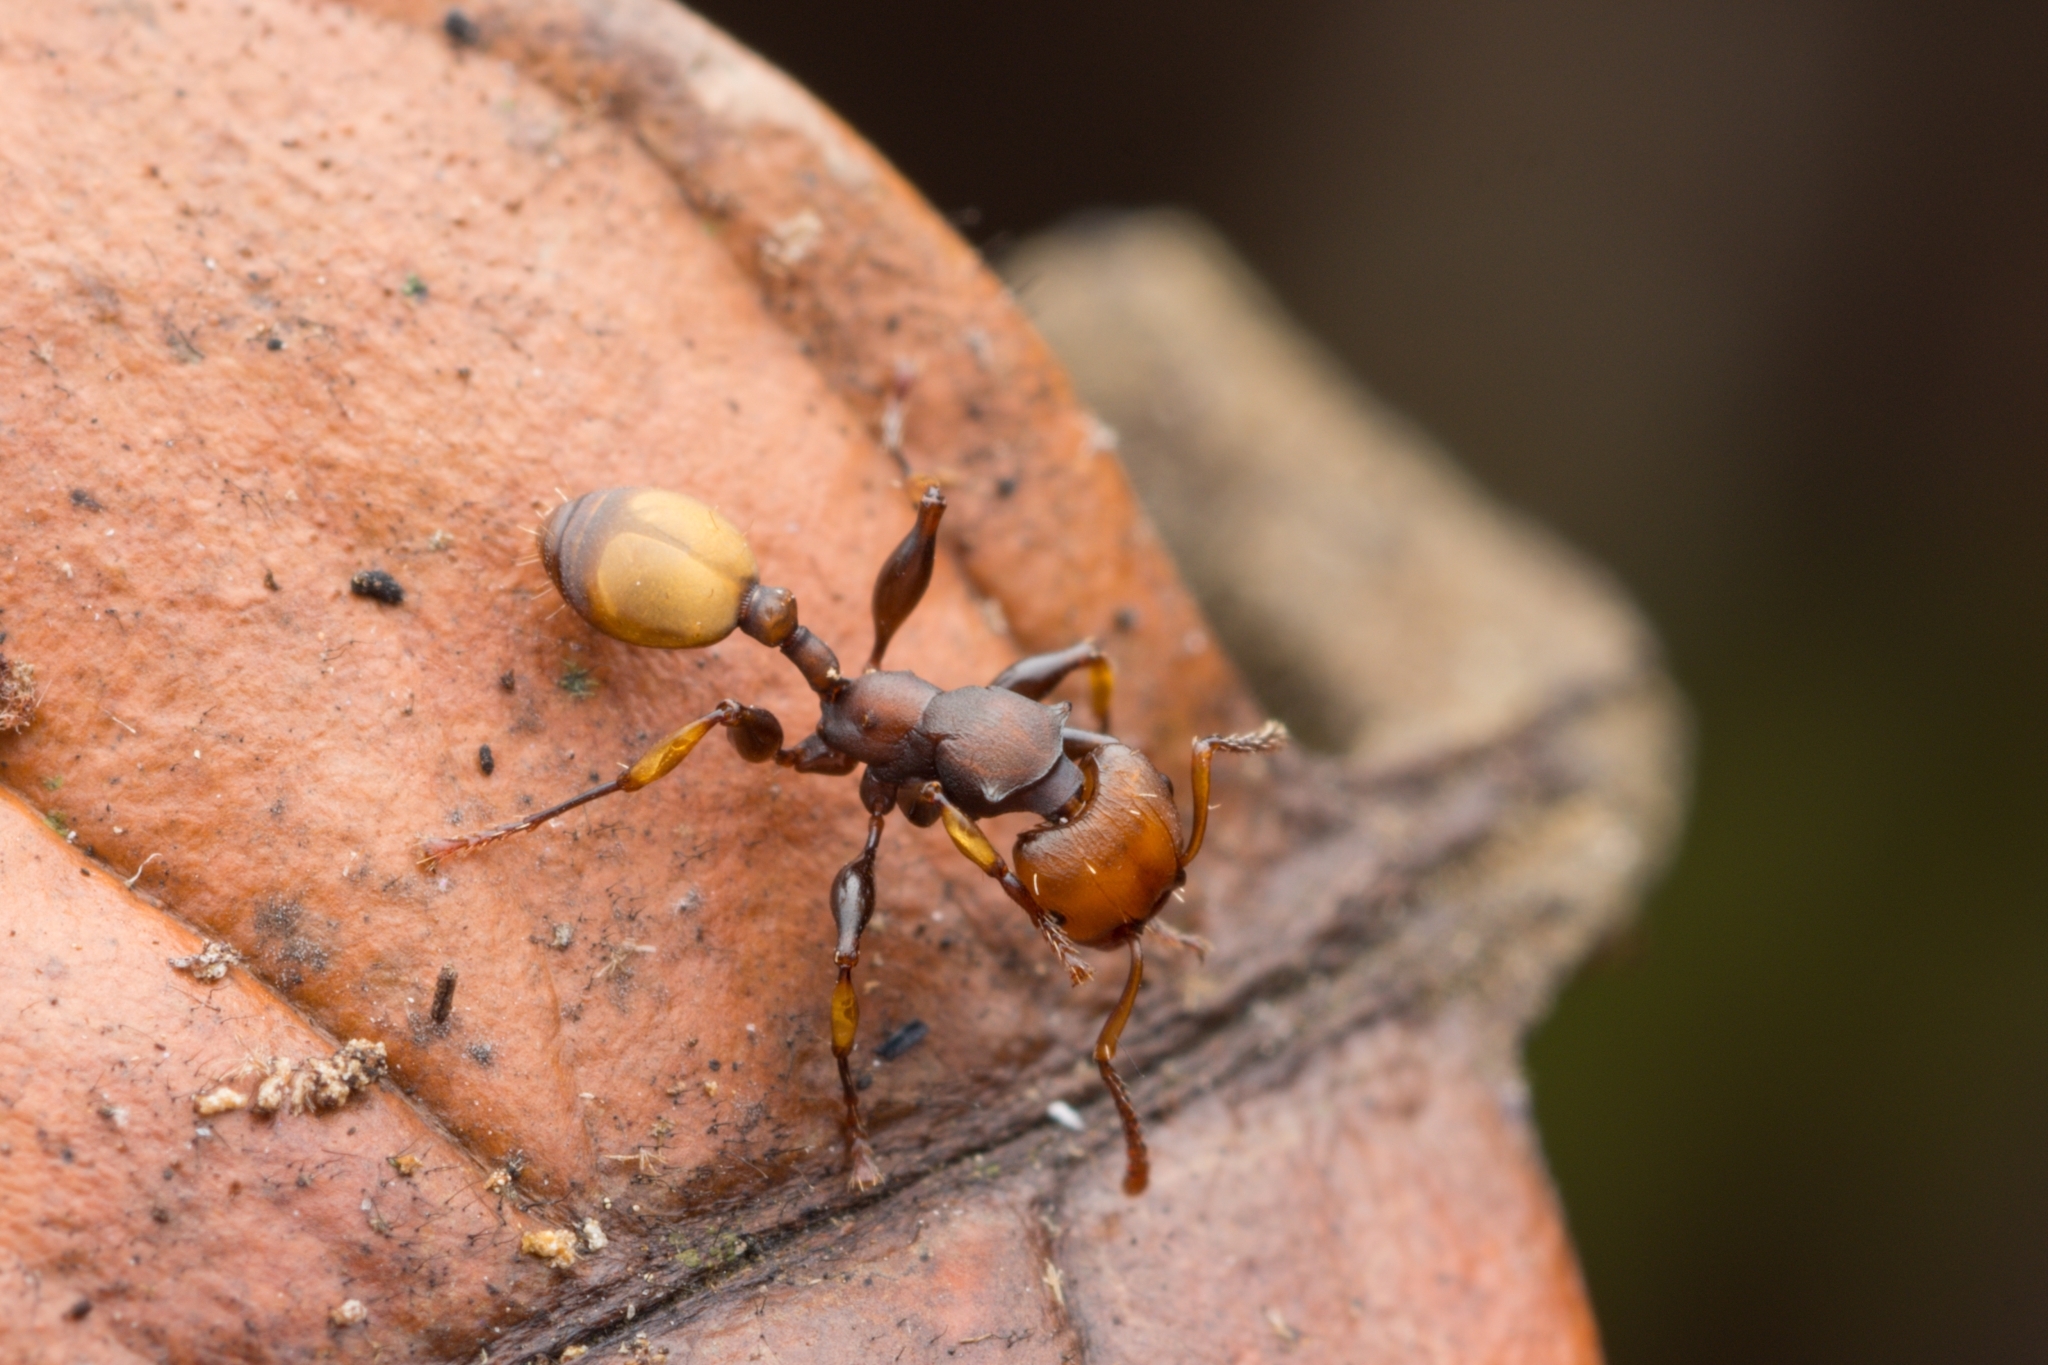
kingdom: Animalia
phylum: Arthropoda
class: Insecta
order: Hymenoptera
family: Formicidae
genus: Podomyrma
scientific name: Podomyrma
